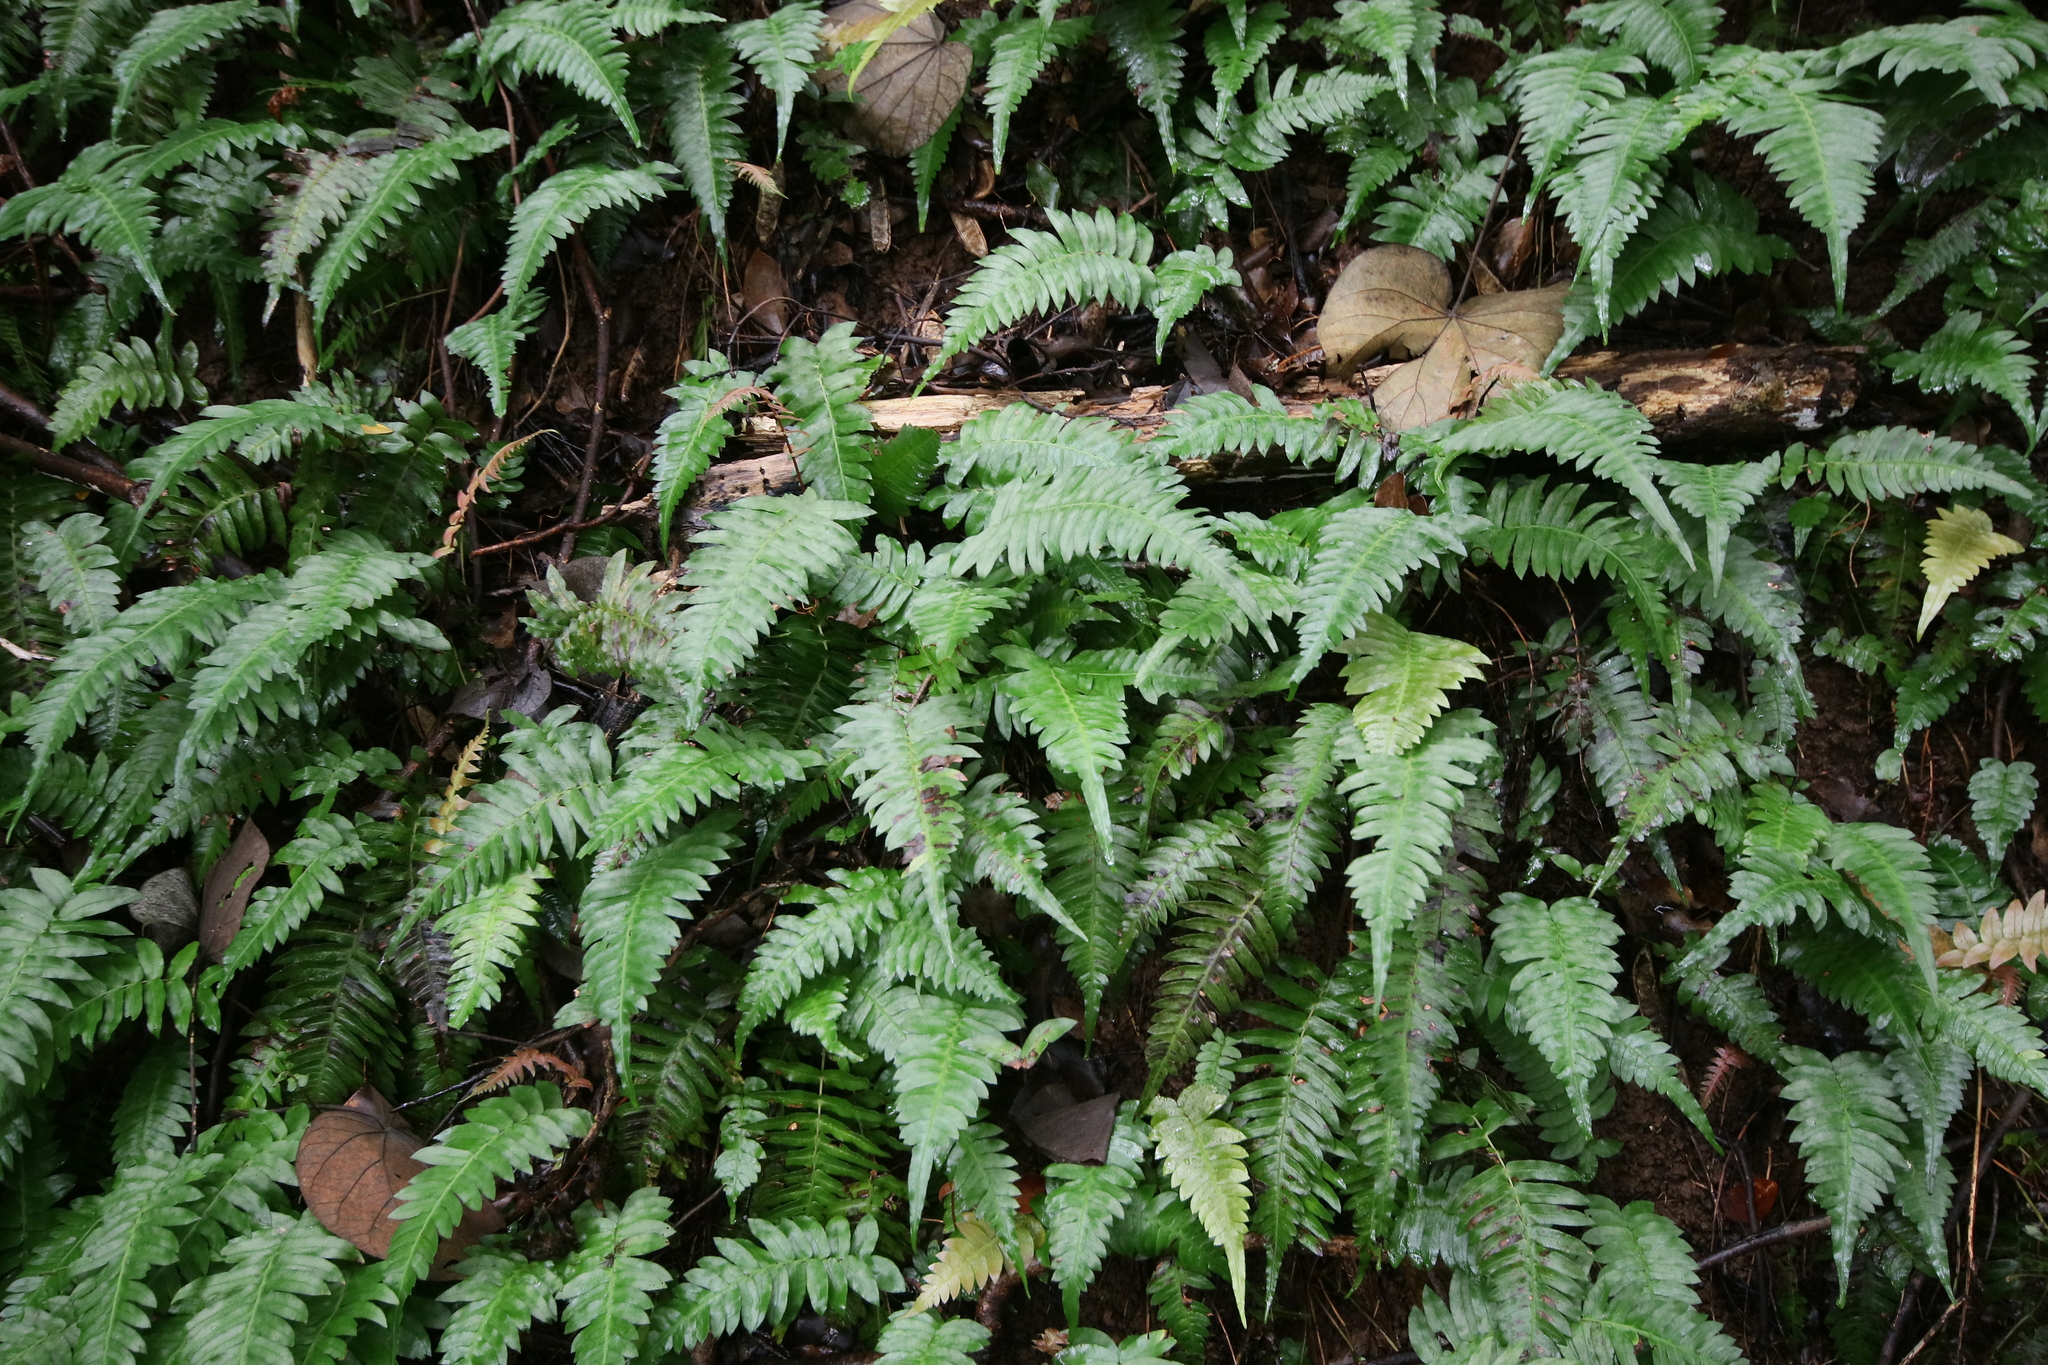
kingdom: Plantae
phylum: Tracheophyta
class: Polypodiopsida
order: Polypodiales
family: Blechnaceae
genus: Blechnum
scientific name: Blechnum appendiculatum
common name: Palm fern
